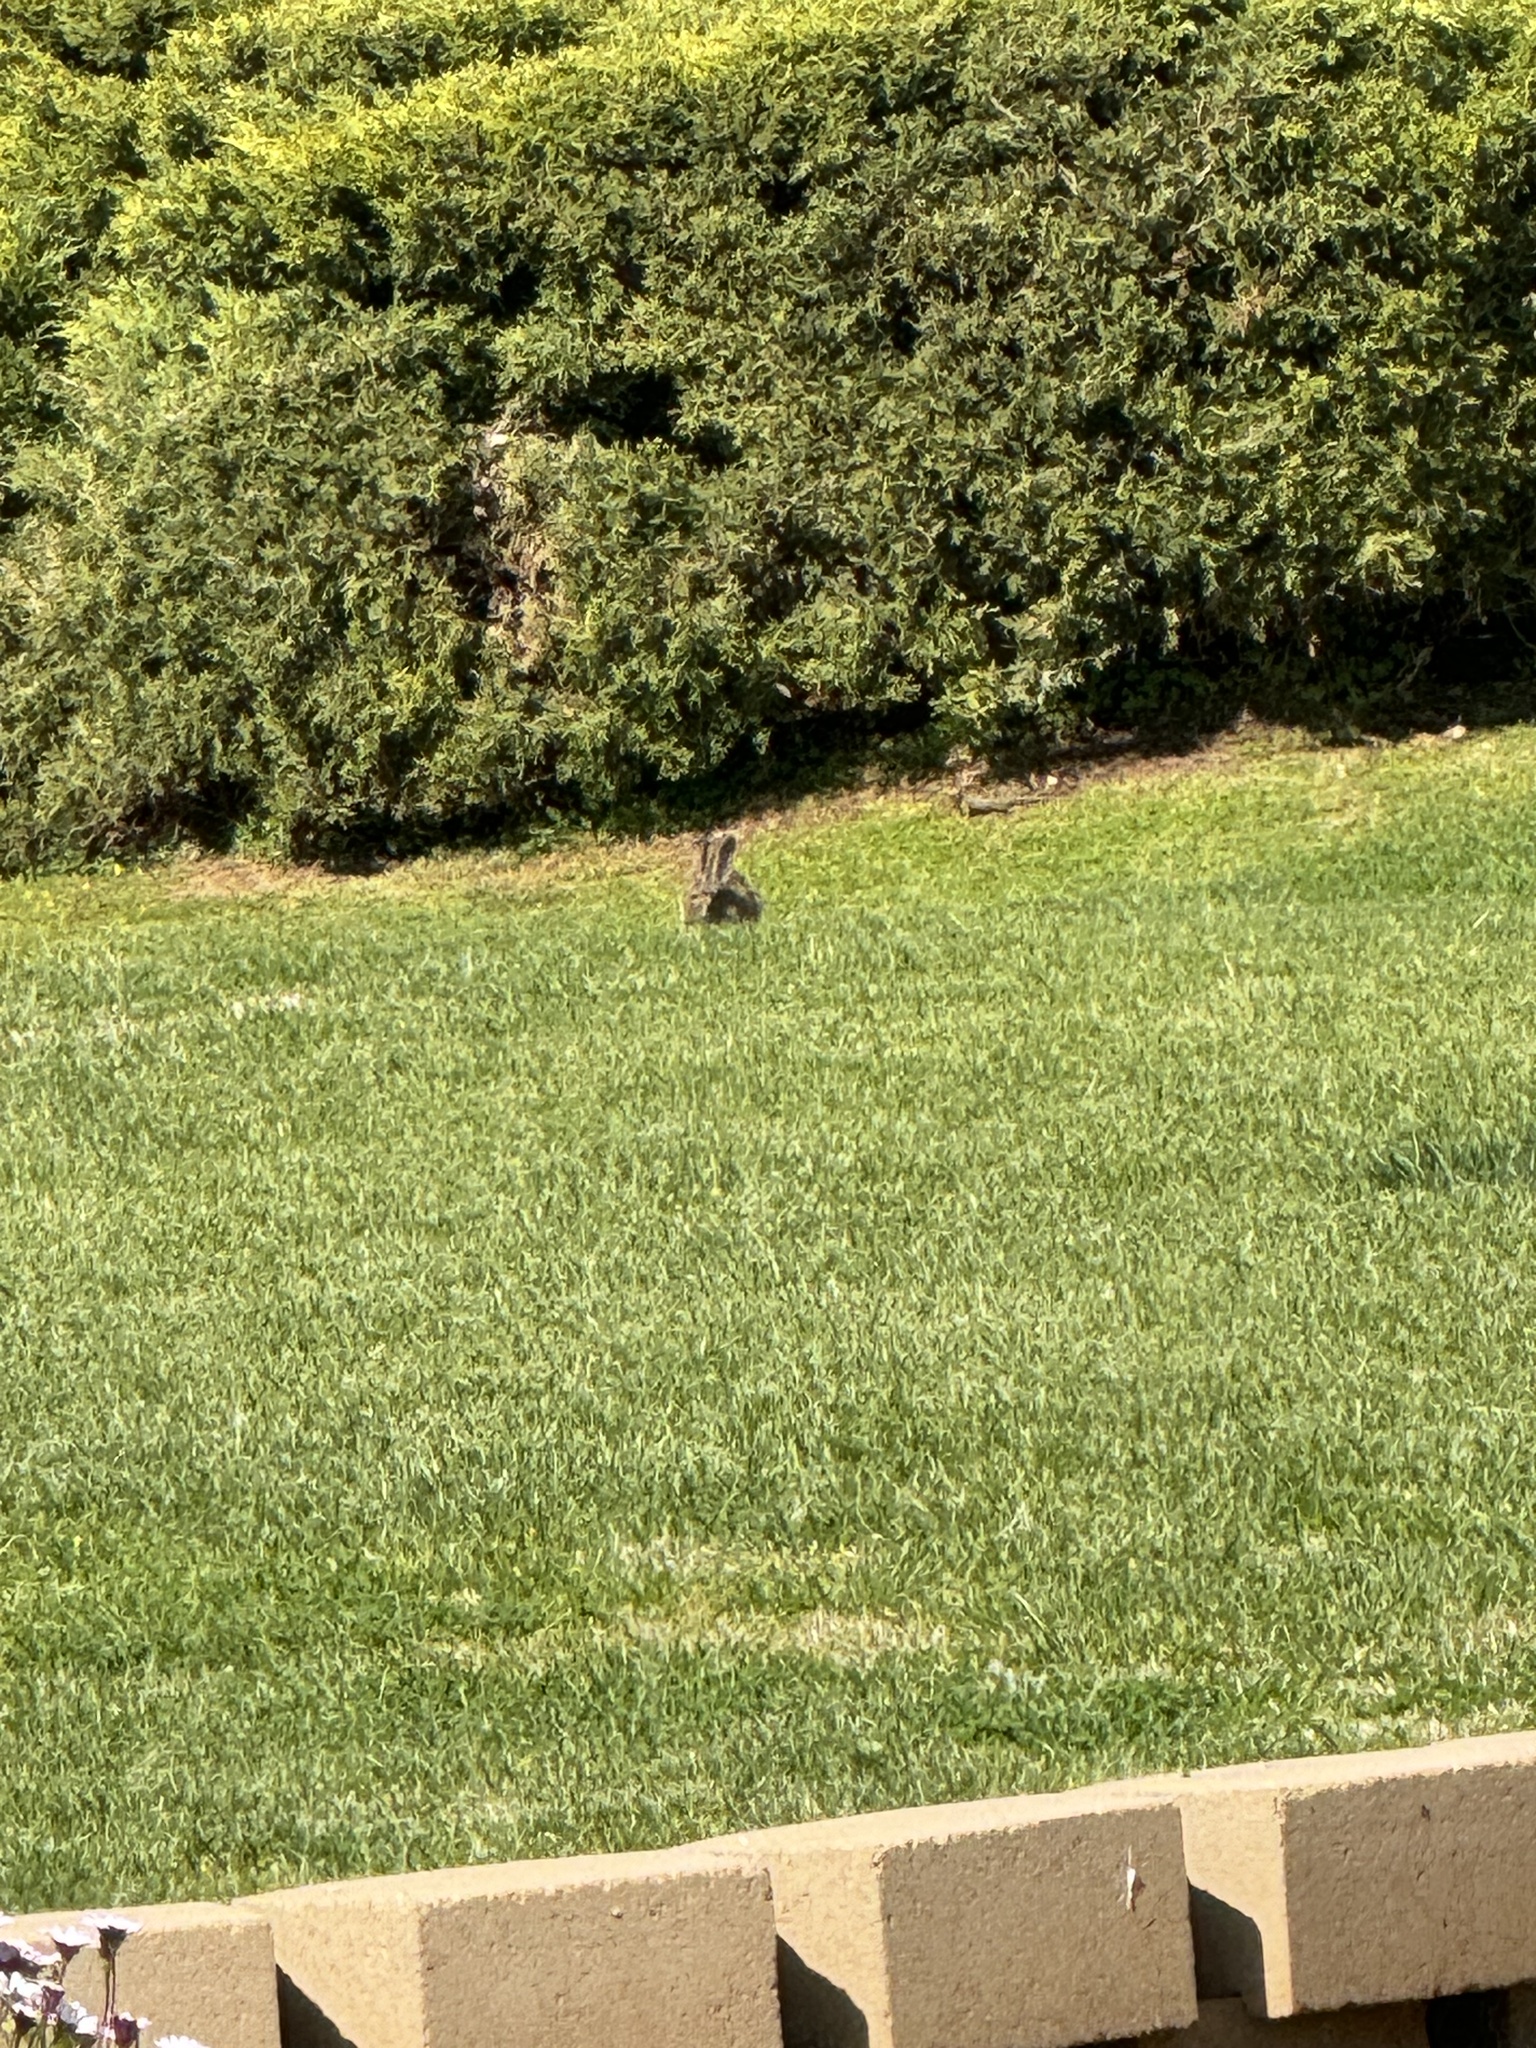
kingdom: Animalia
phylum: Chordata
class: Mammalia
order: Lagomorpha
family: Leporidae
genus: Sylvilagus
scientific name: Sylvilagus audubonii
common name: Desert cottontail
